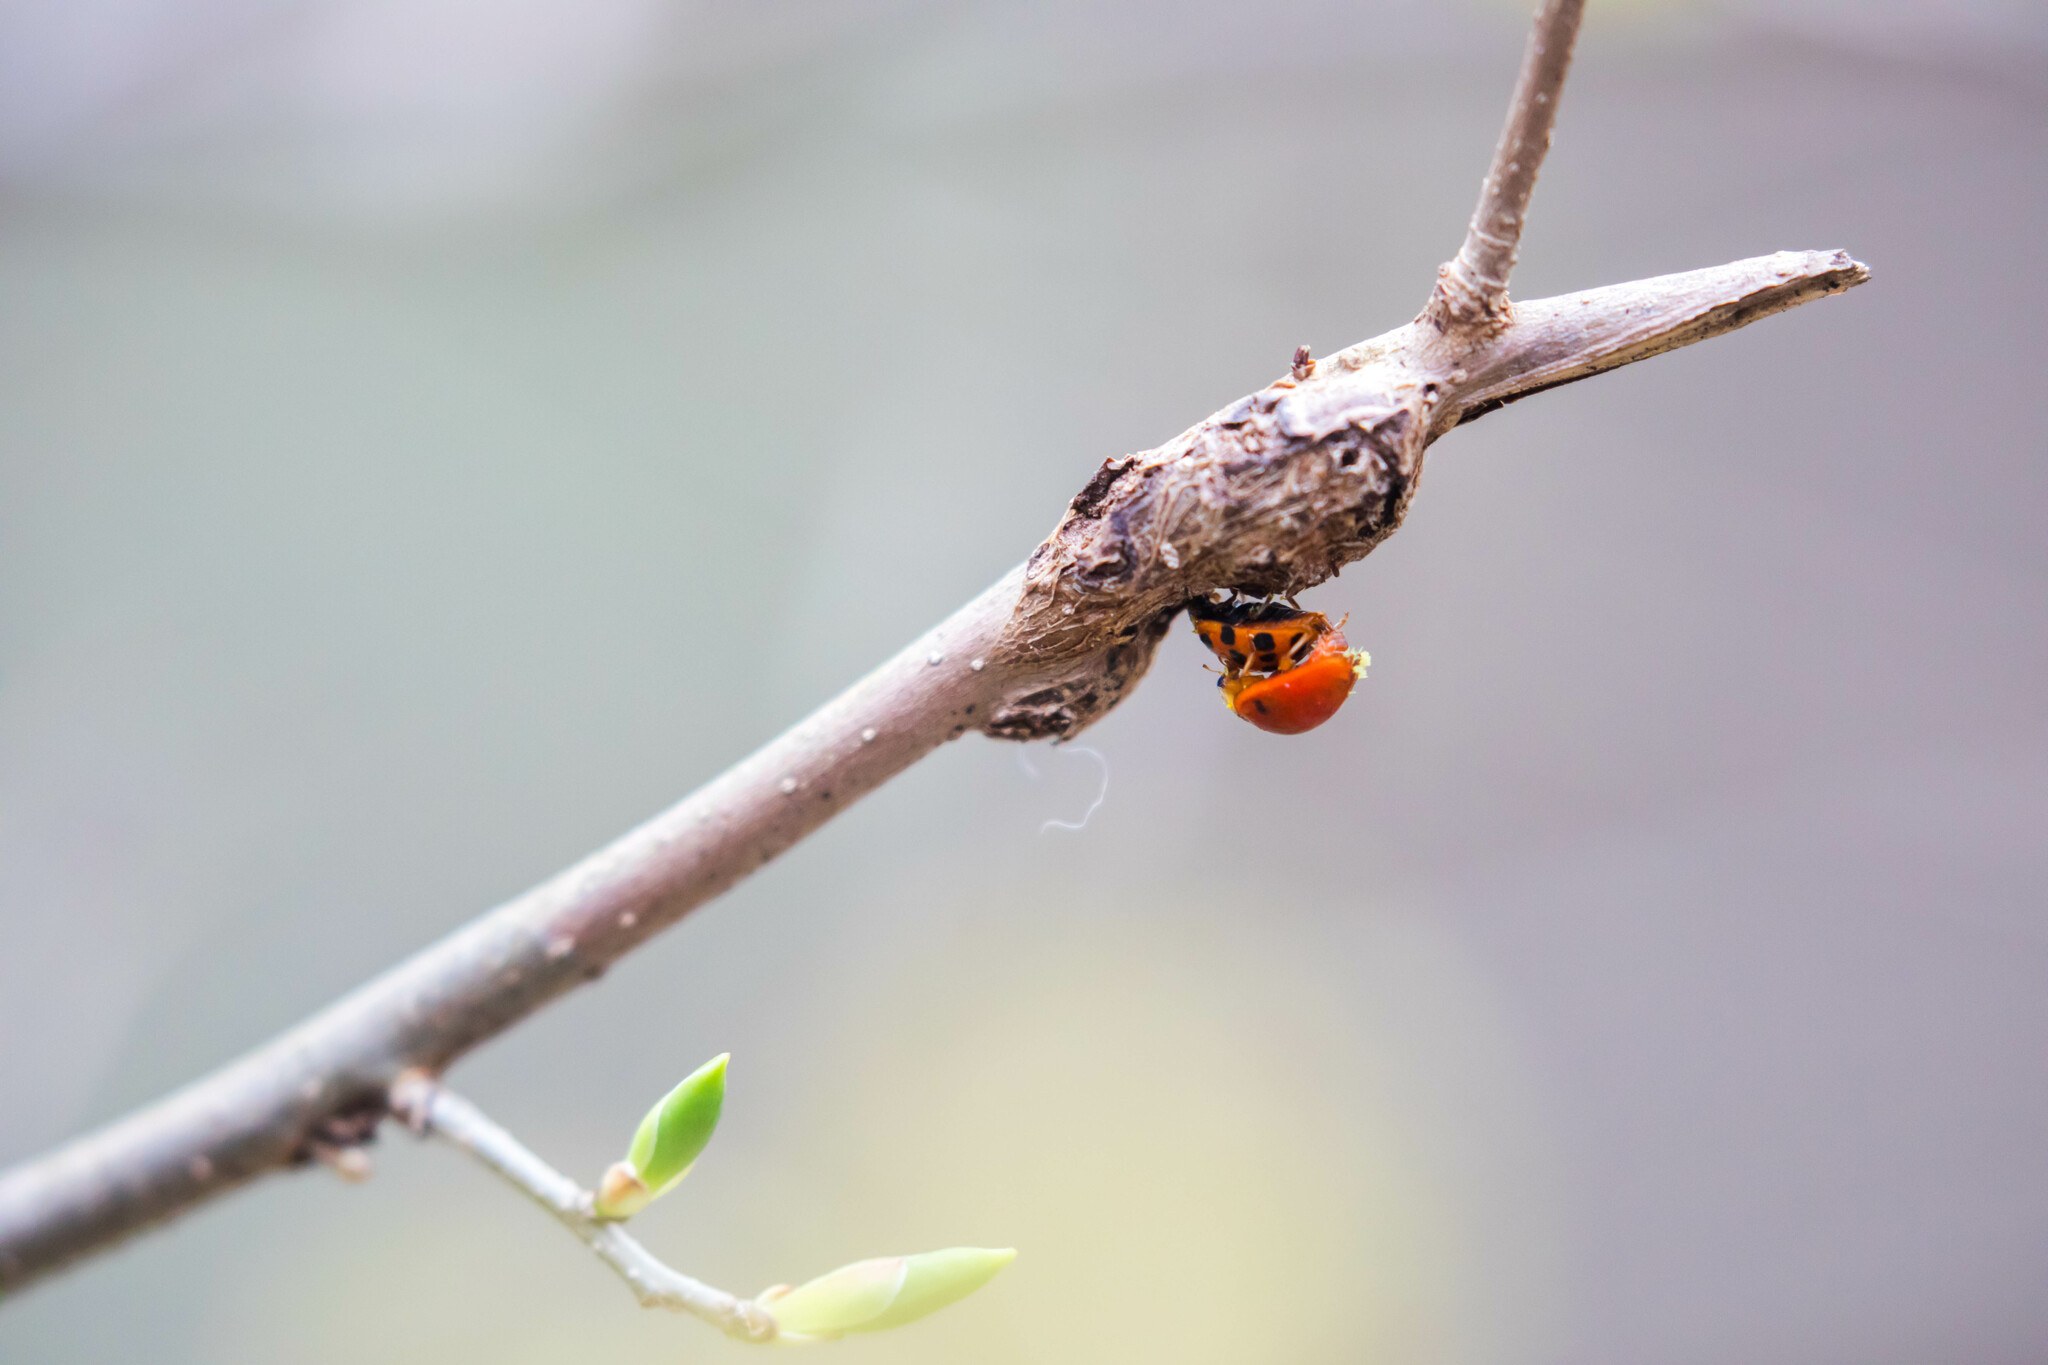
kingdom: Animalia
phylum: Arthropoda
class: Insecta
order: Coleoptera
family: Coccinellidae
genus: Harmonia
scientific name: Harmonia axyridis
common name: Harlequin ladybird
